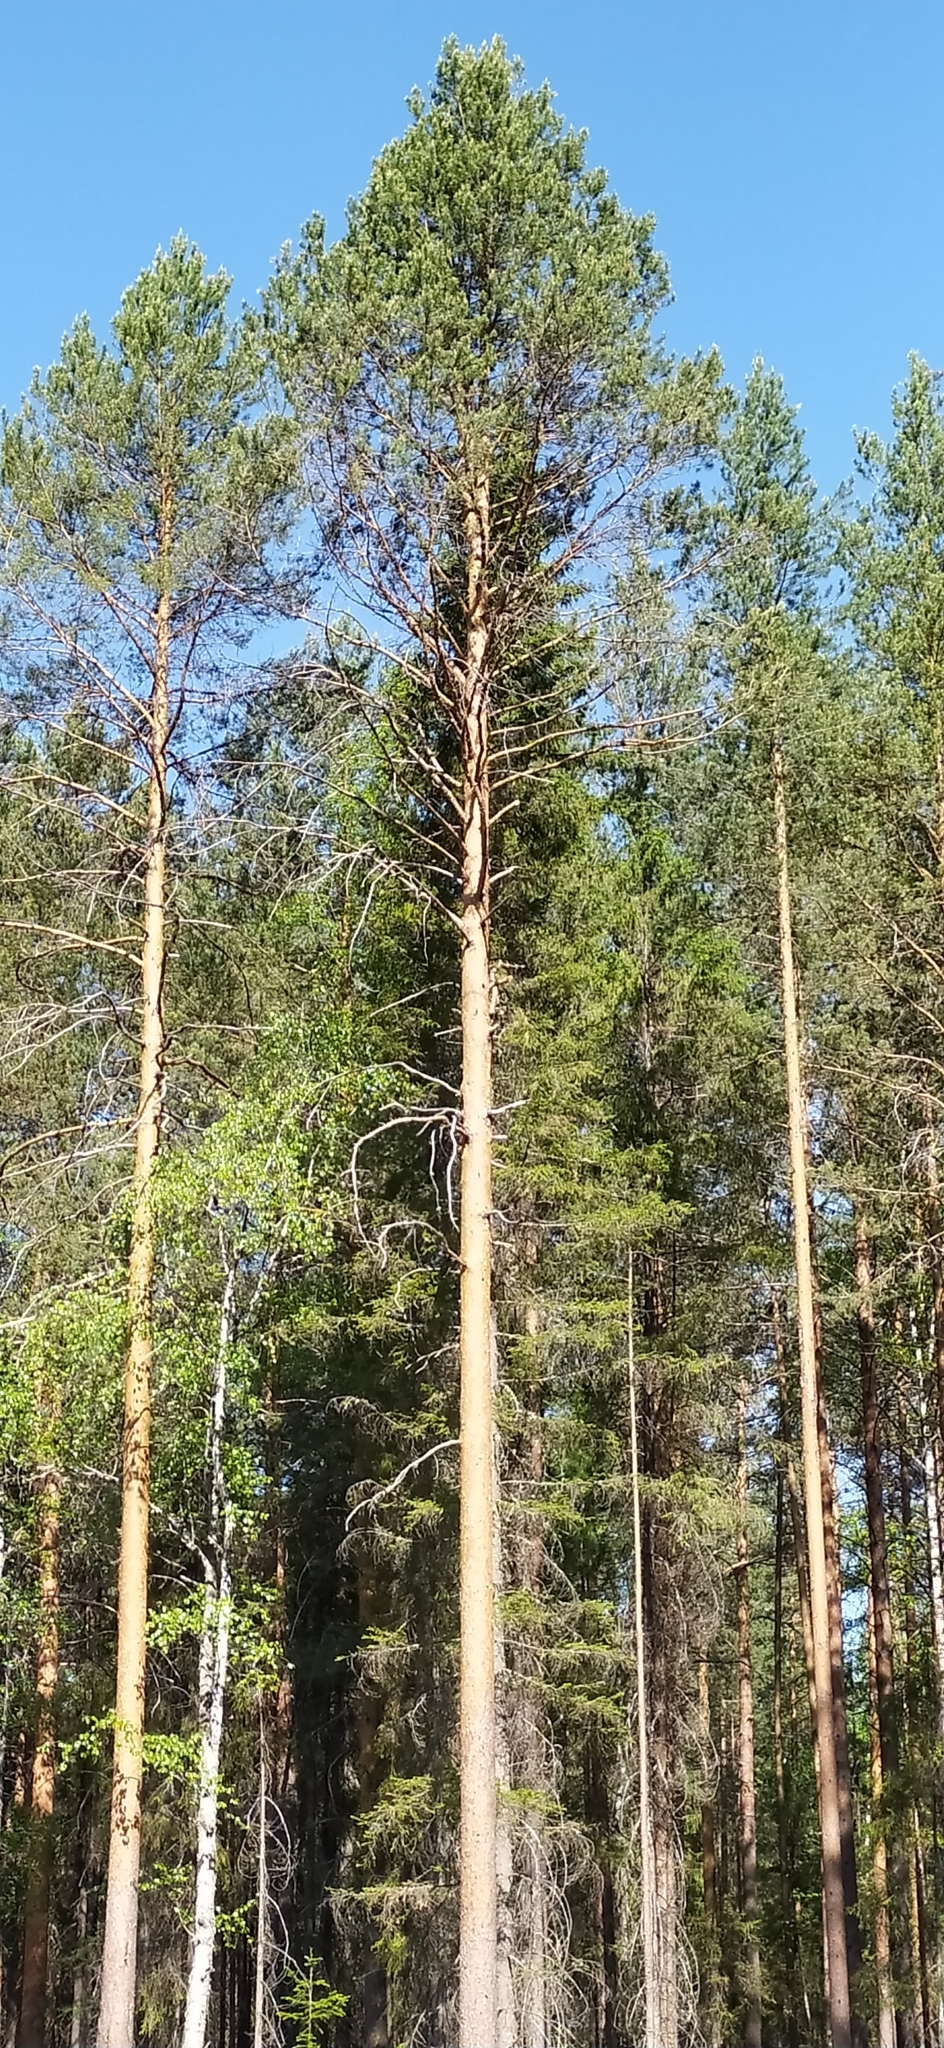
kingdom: Plantae
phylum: Tracheophyta
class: Pinopsida
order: Pinales
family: Pinaceae
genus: Pinus
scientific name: Pinus sylvestris
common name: Scots pine
